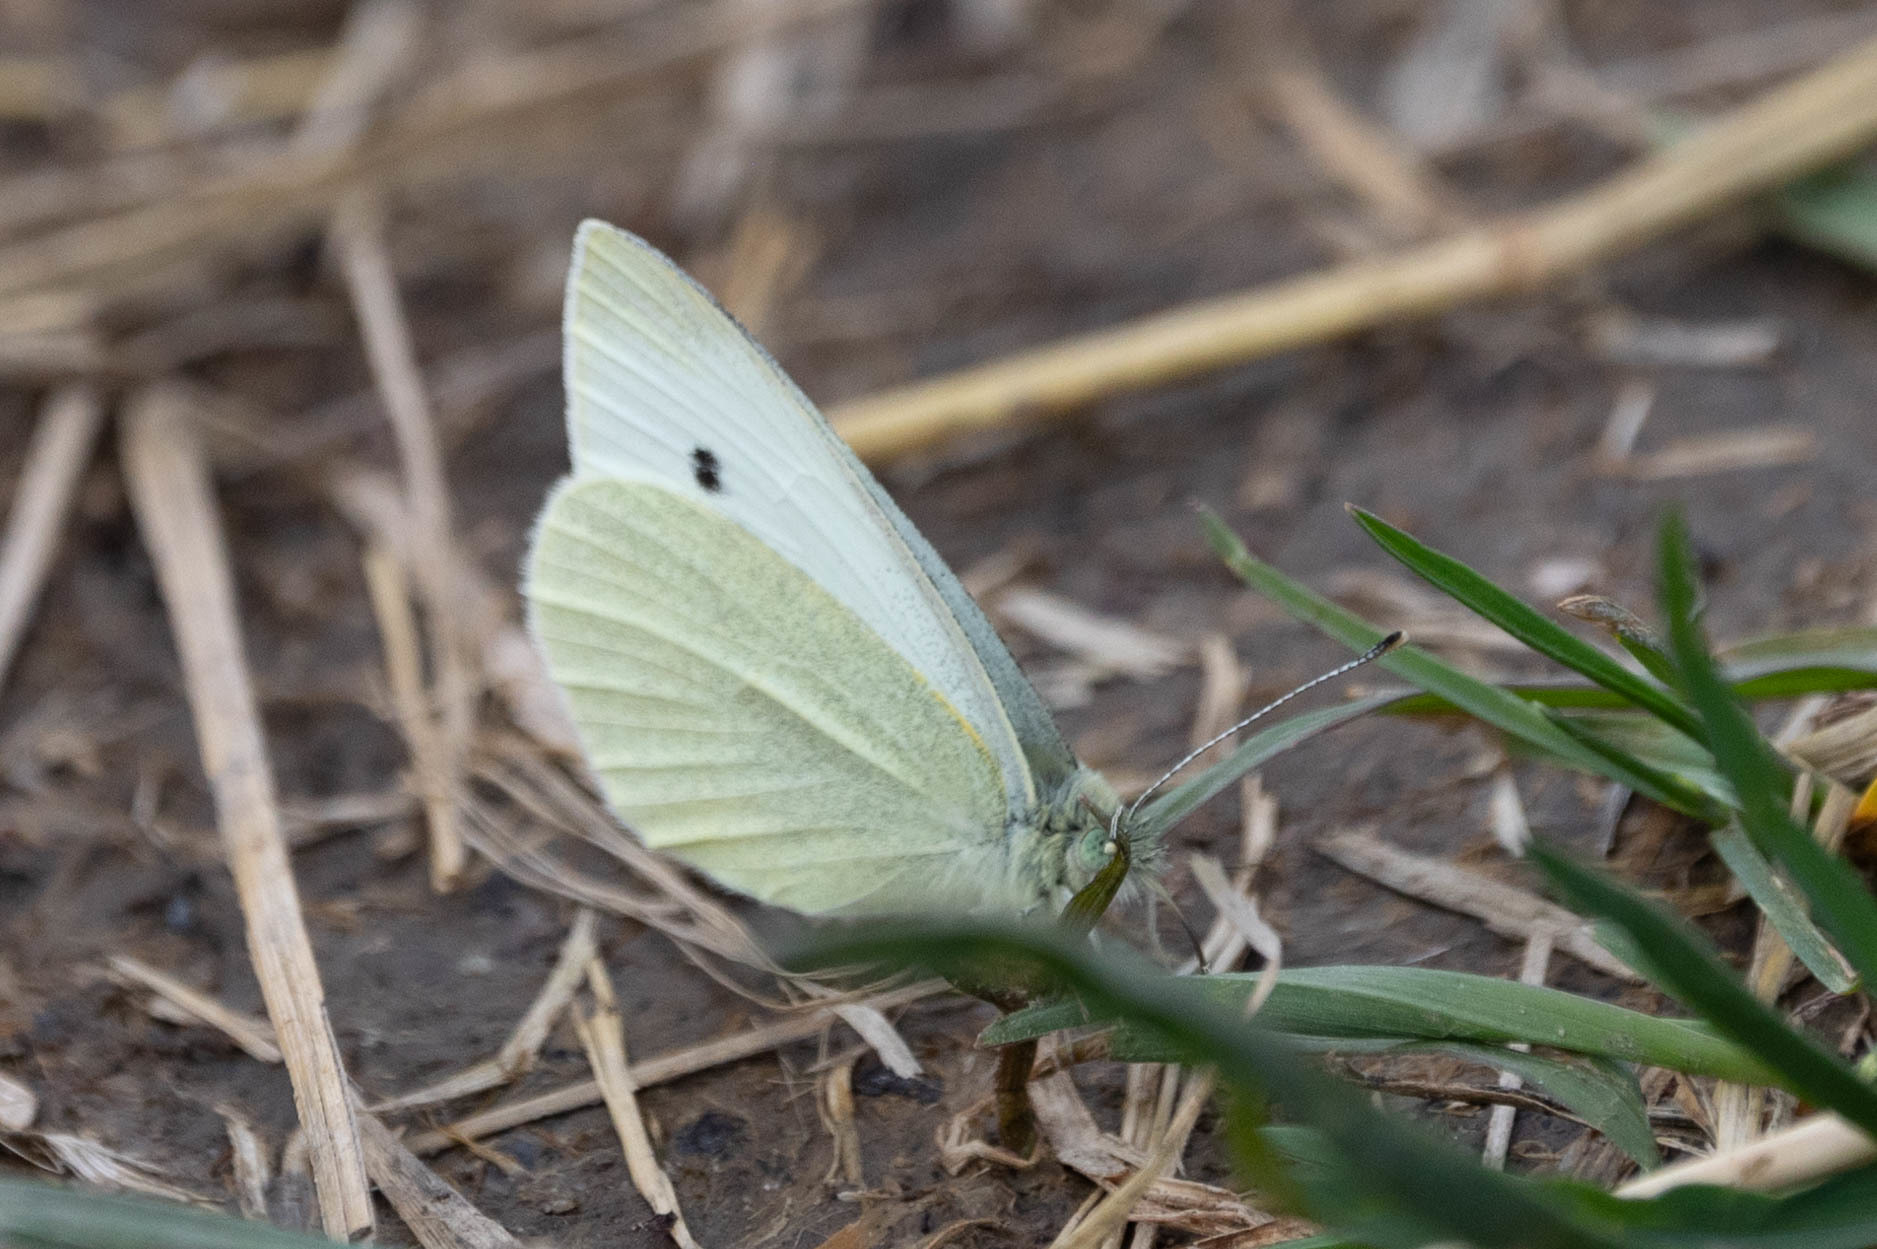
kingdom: Animalia
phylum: Arthropoda
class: Insecta
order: Lepidoptera
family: Pieridae
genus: Pieris
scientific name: Pieris rapae
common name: Small white
